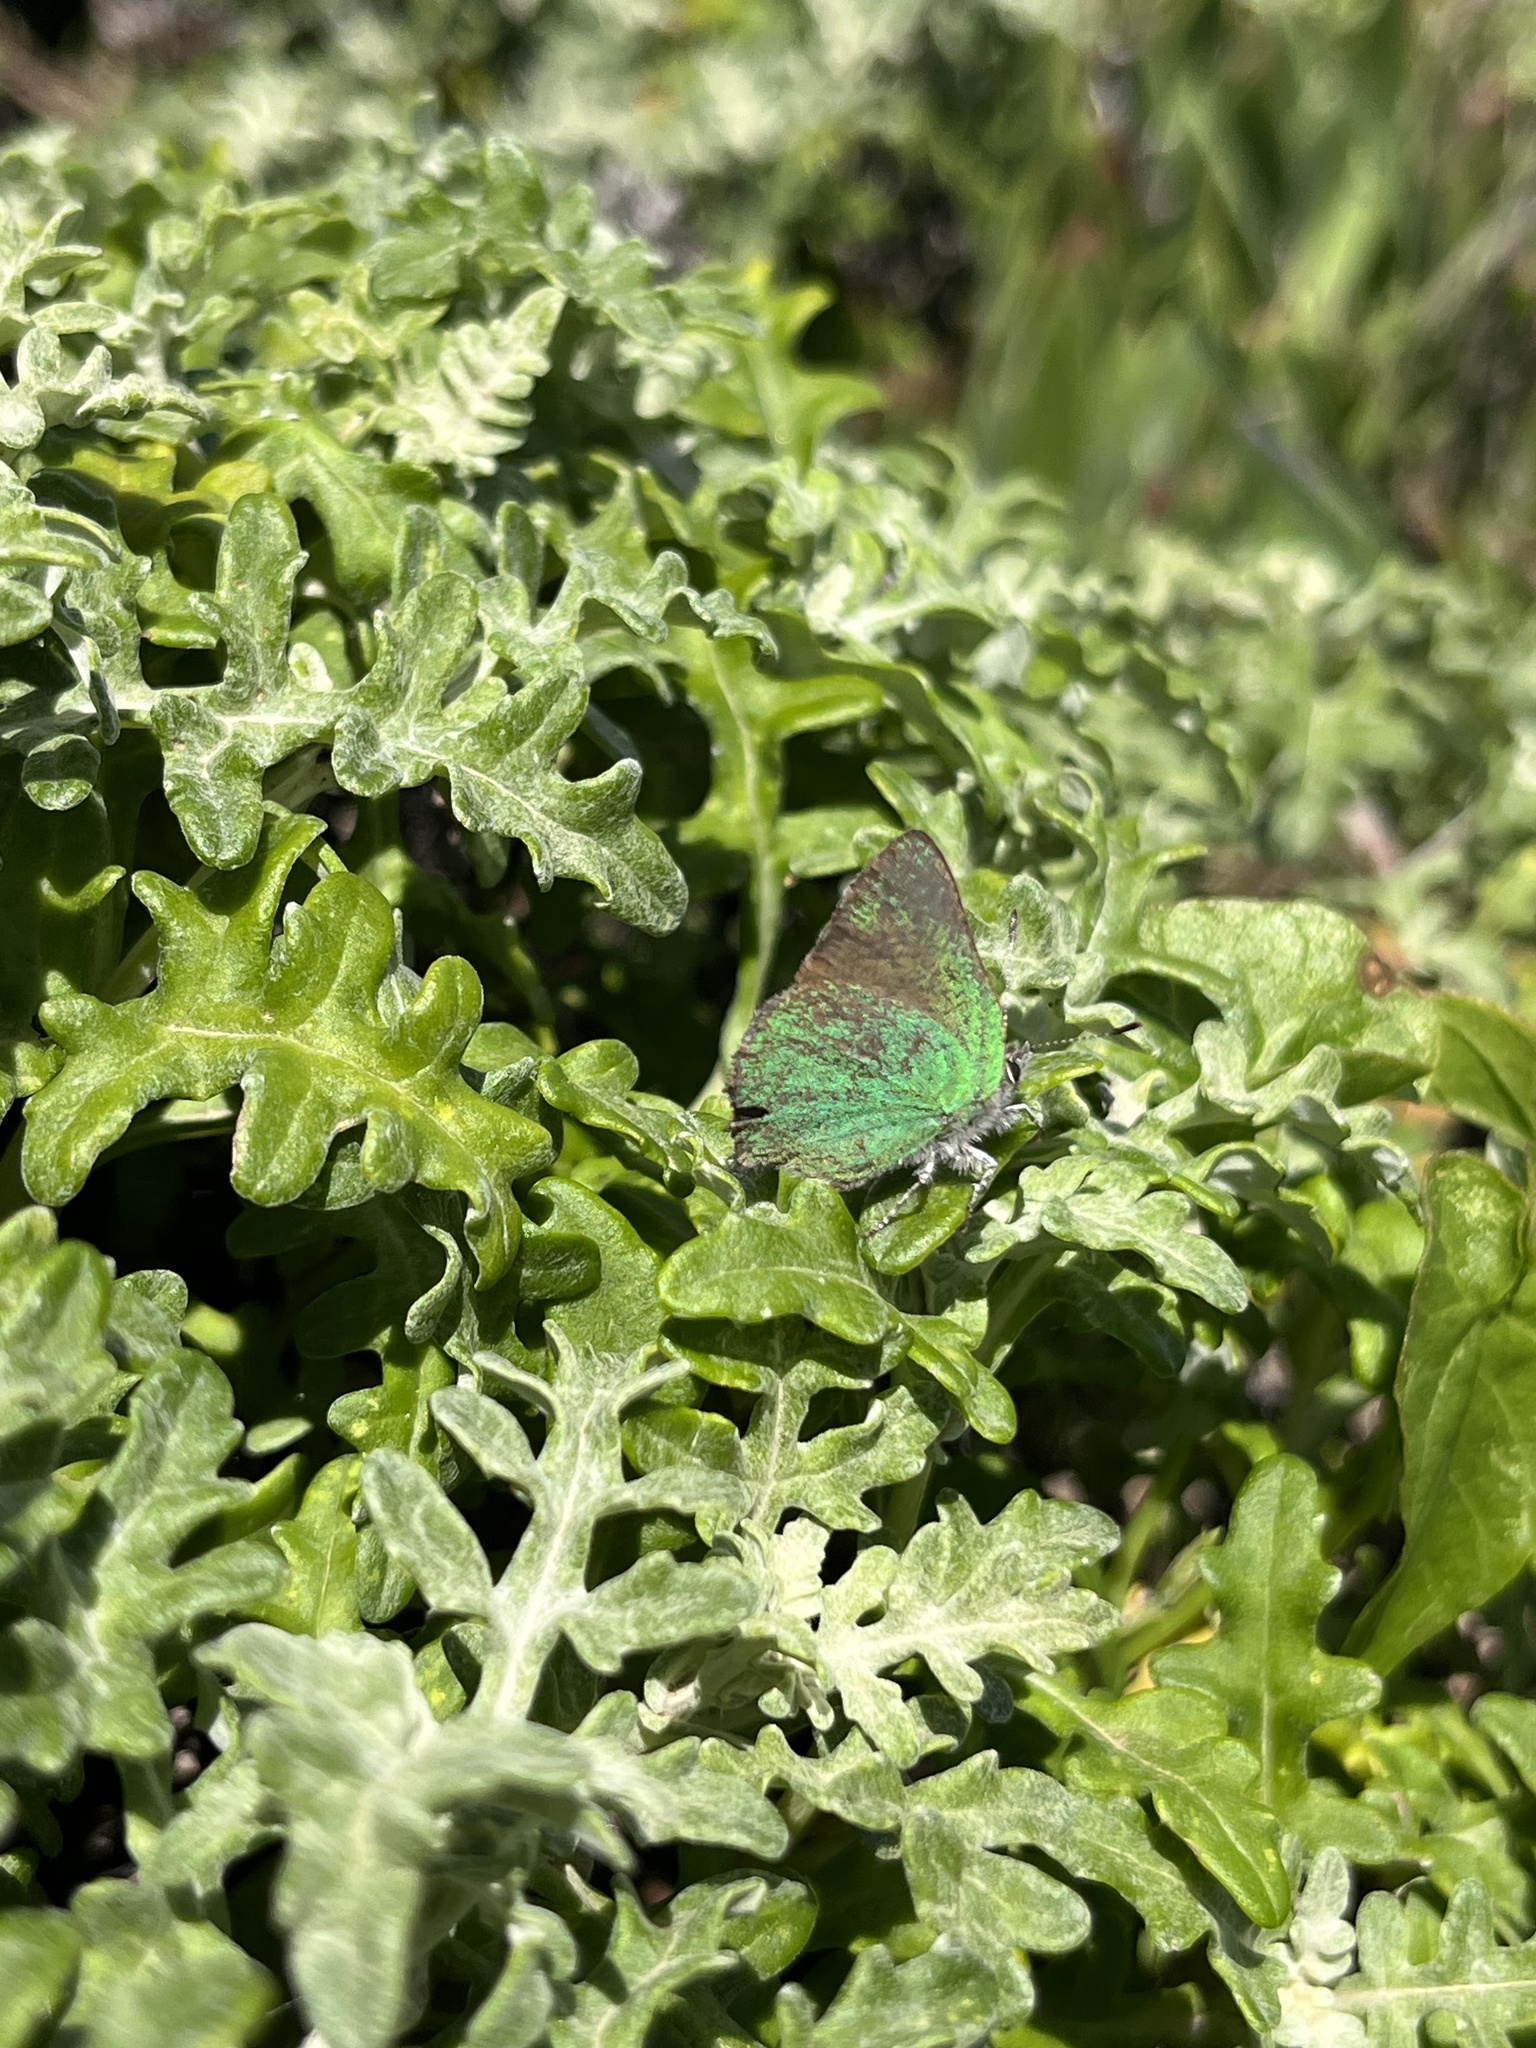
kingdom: Animalia
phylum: Arthropoda
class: Insecta
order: Lepidoptera
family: Lycaenidae
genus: Callophrys
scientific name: Callophrys dumetorum
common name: Bramble hairstreak
